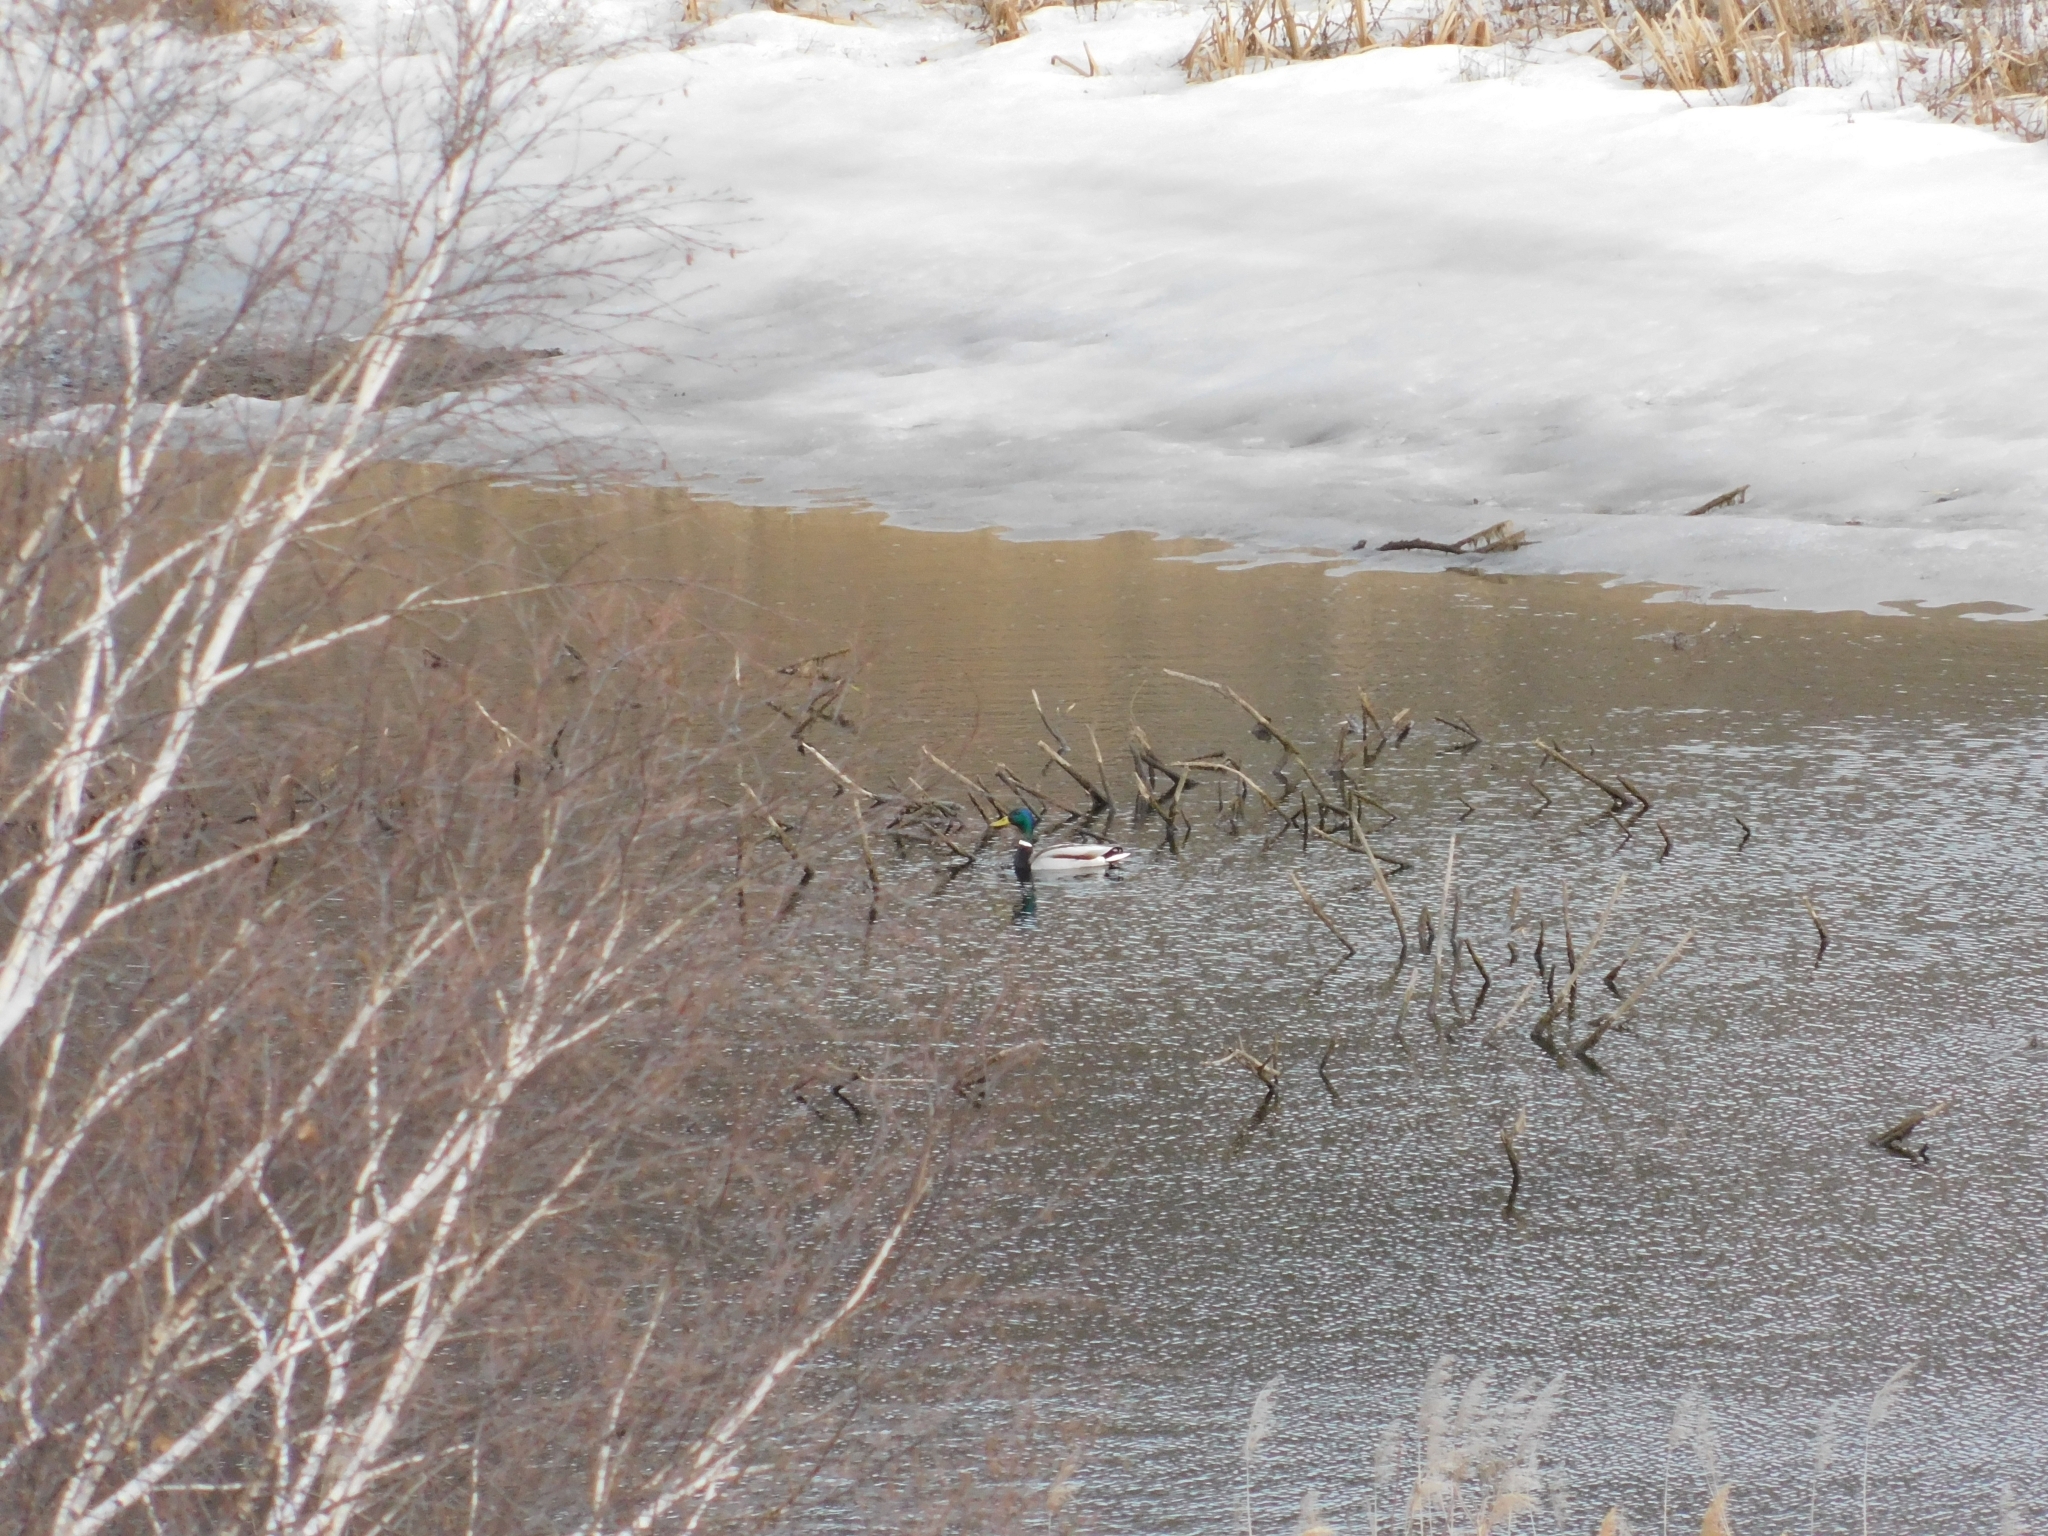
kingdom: Animalia
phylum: Chordata
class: Aves
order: Anseriformes
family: Anatidae
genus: Anas
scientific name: Anas platyrhynchos
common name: Mallard
